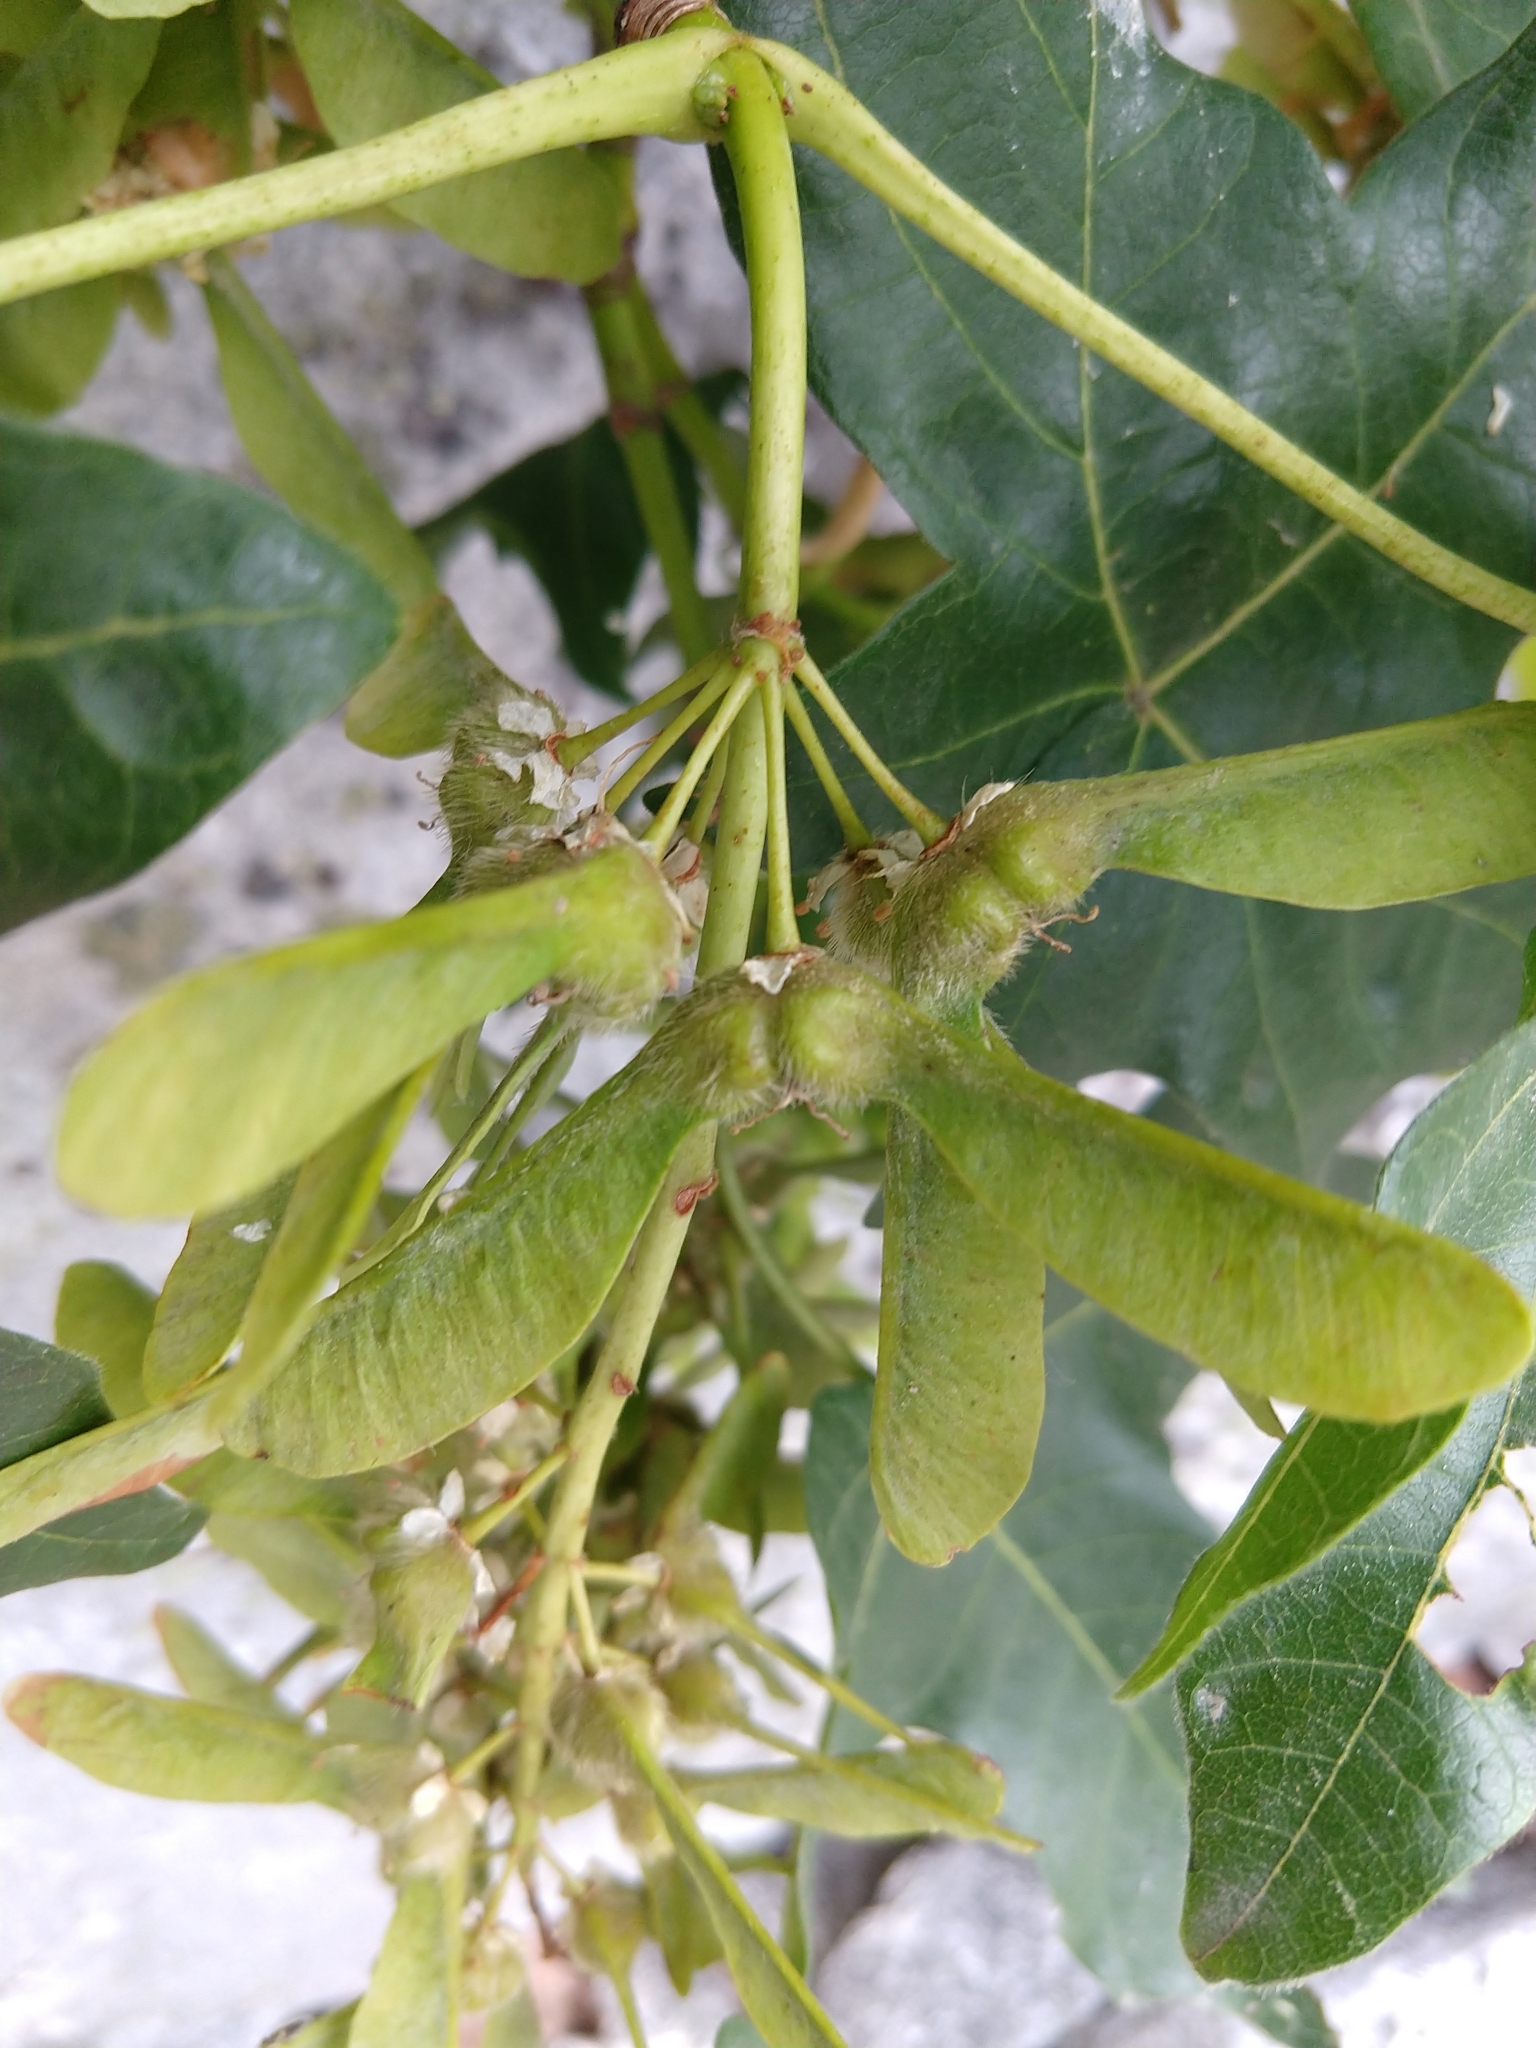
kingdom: Plantae
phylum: Tracheophyta
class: Magnoliopsida
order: Sapindales
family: Sapindaceae
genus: Acer
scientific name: Acer macrophyllum
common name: Oregon maple
